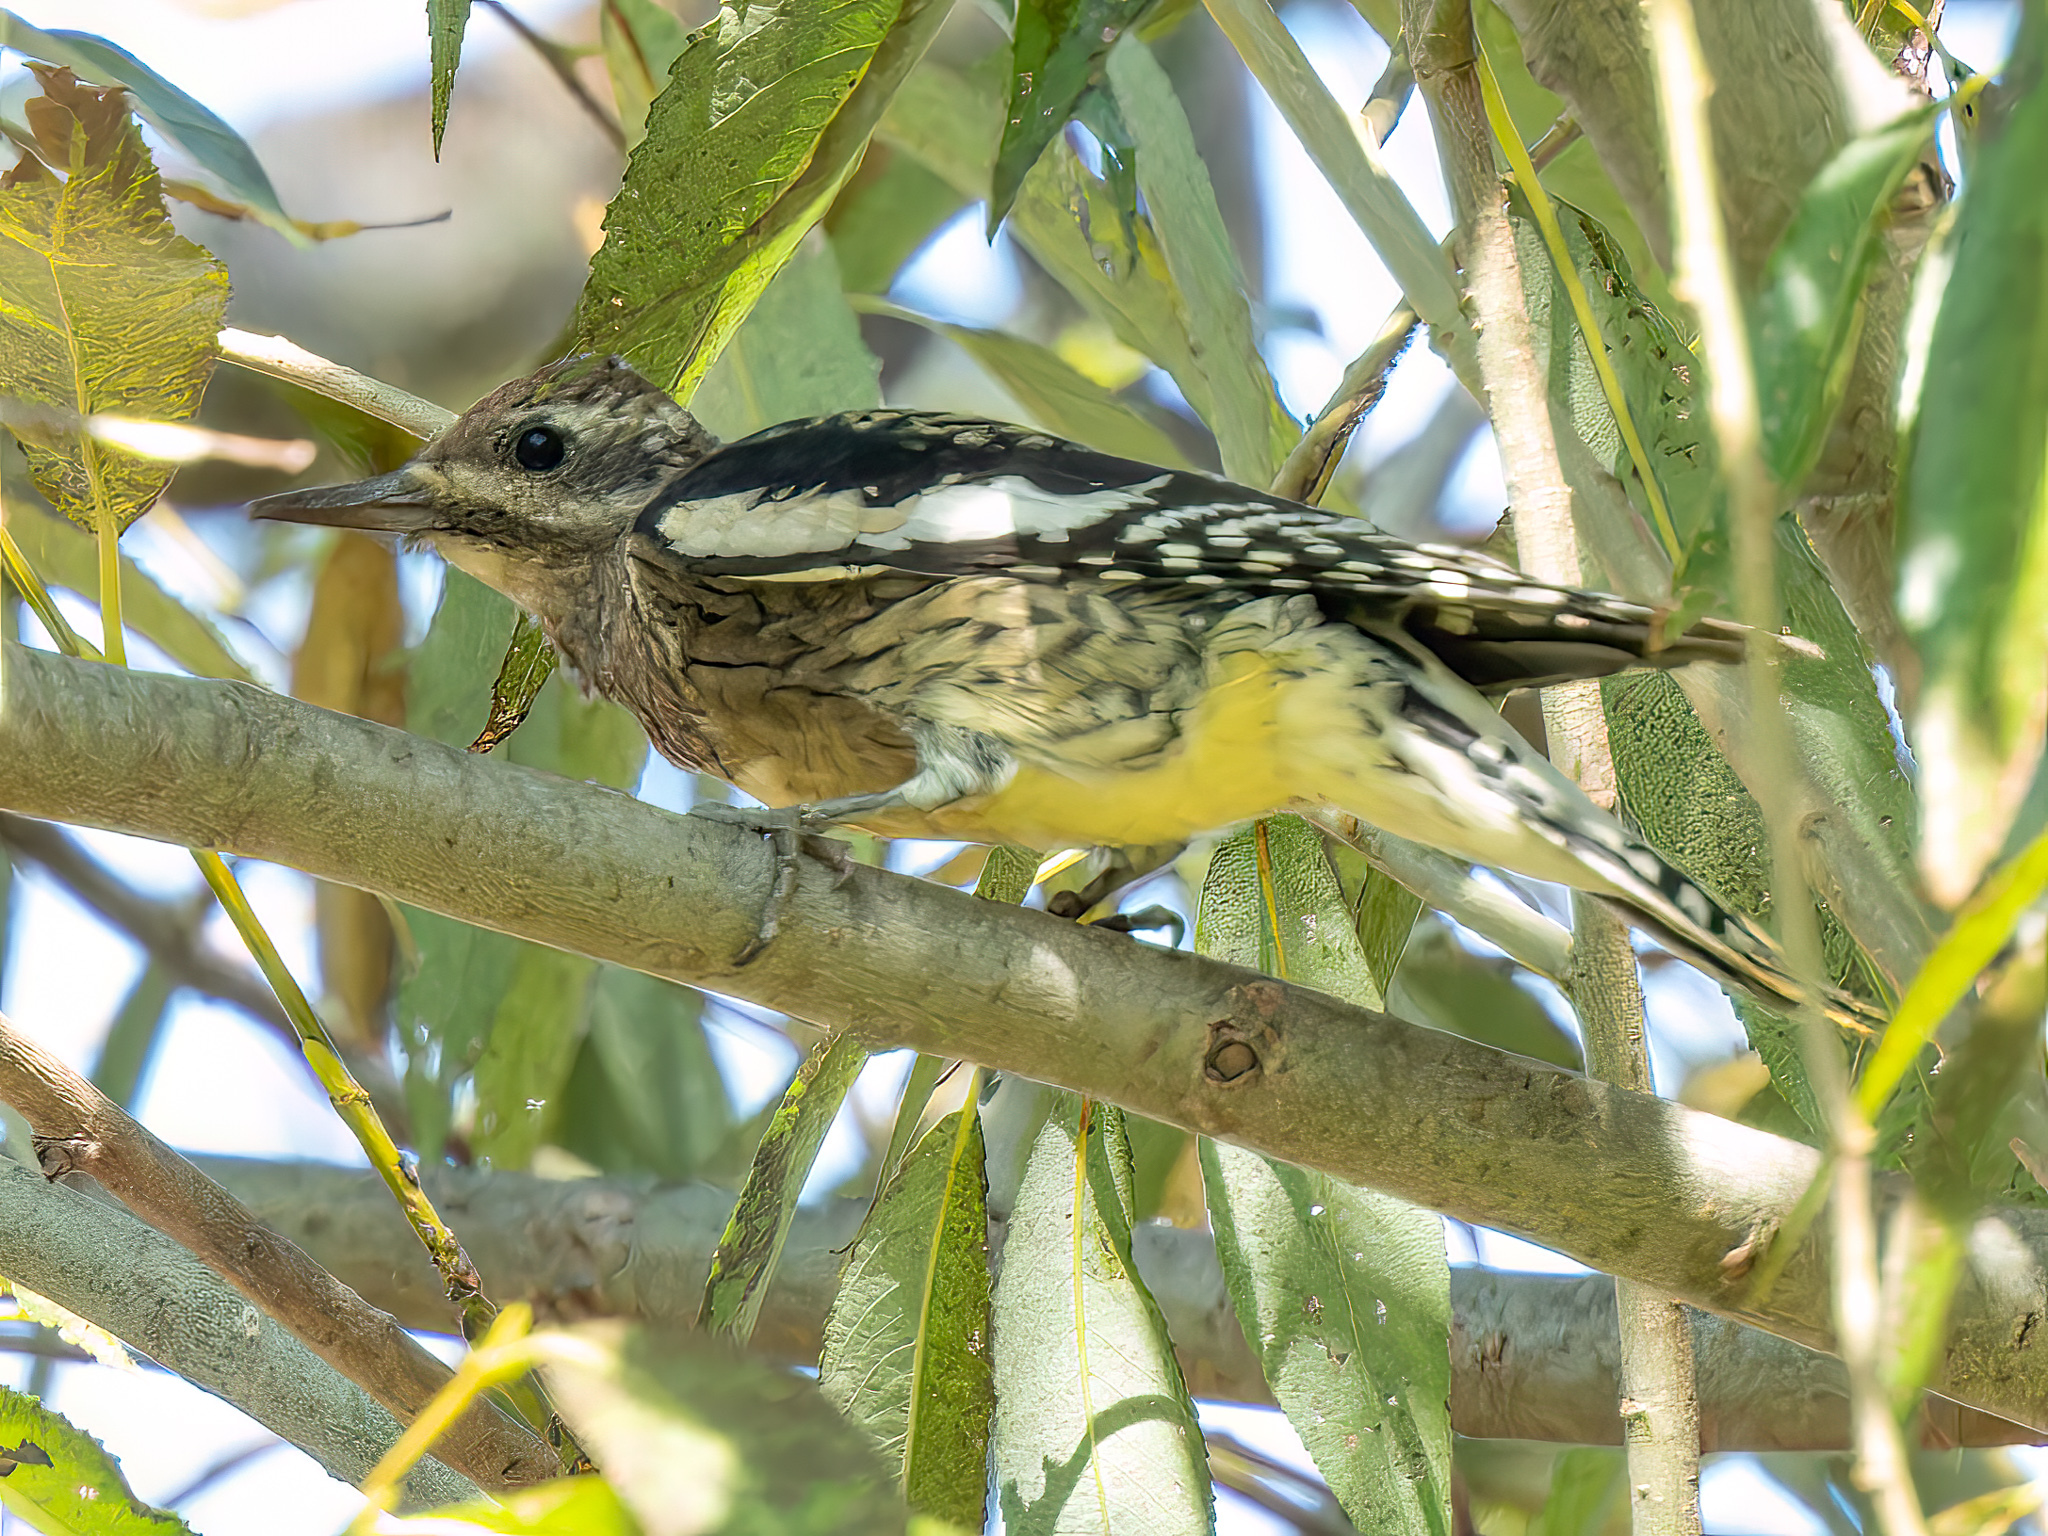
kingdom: Animalia
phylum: Chordata
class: Aves
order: Piciformes
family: Picidae
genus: Sphyrapicus
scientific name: Sphyrapicus varius
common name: Yellow-bellied sapsucker
